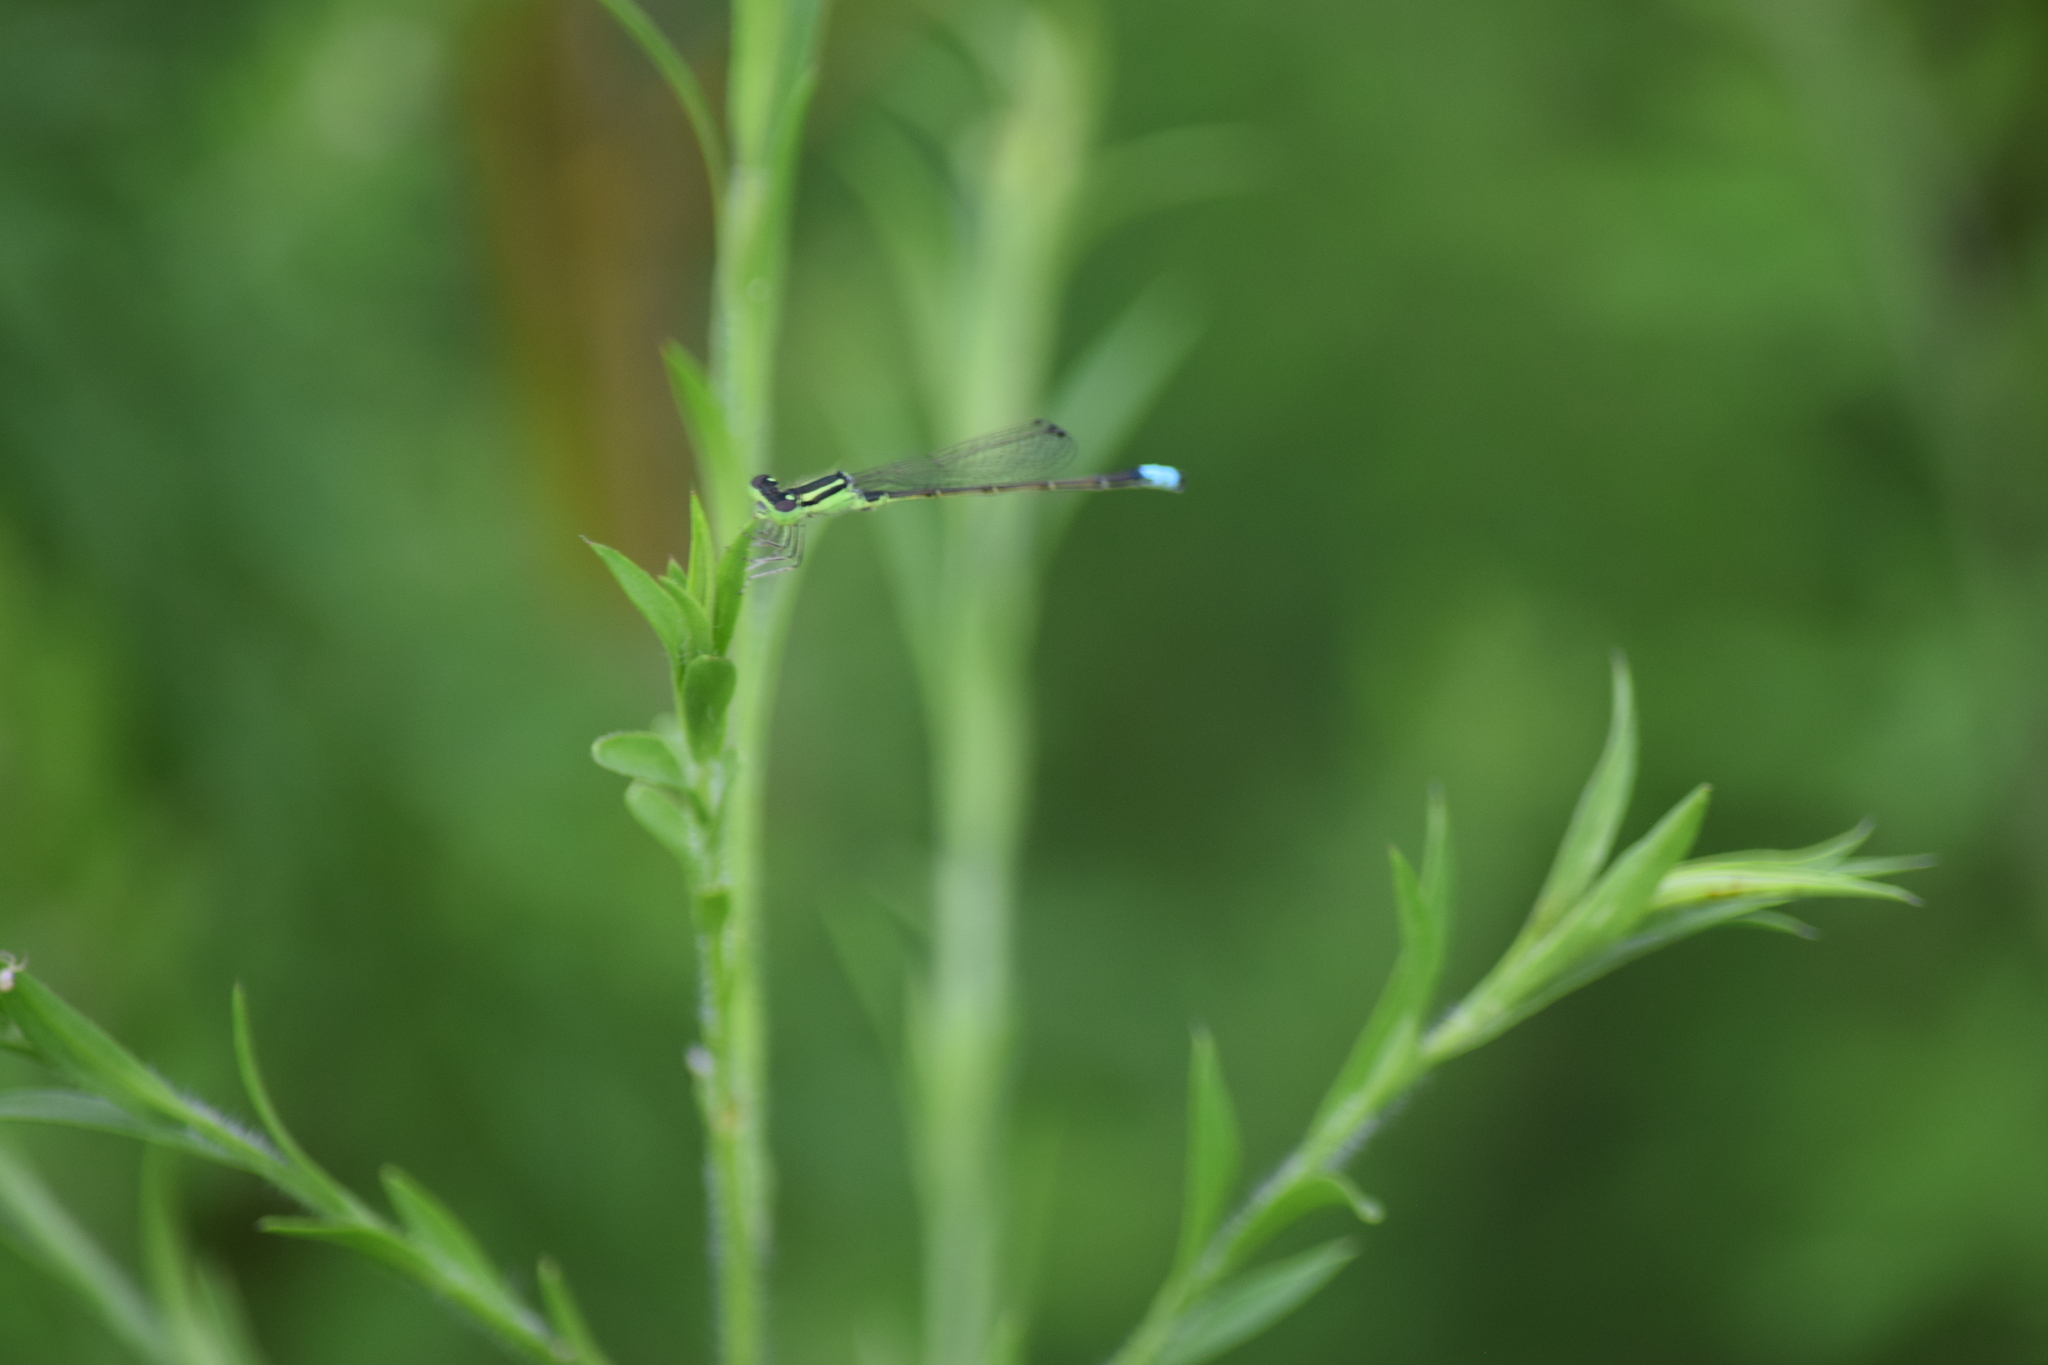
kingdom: Animalia
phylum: Arthropoda
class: Insecta
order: Odonata
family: Coenagrionidae
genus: Ischnura
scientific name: Ischnura verticalis
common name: Eastern forktail
